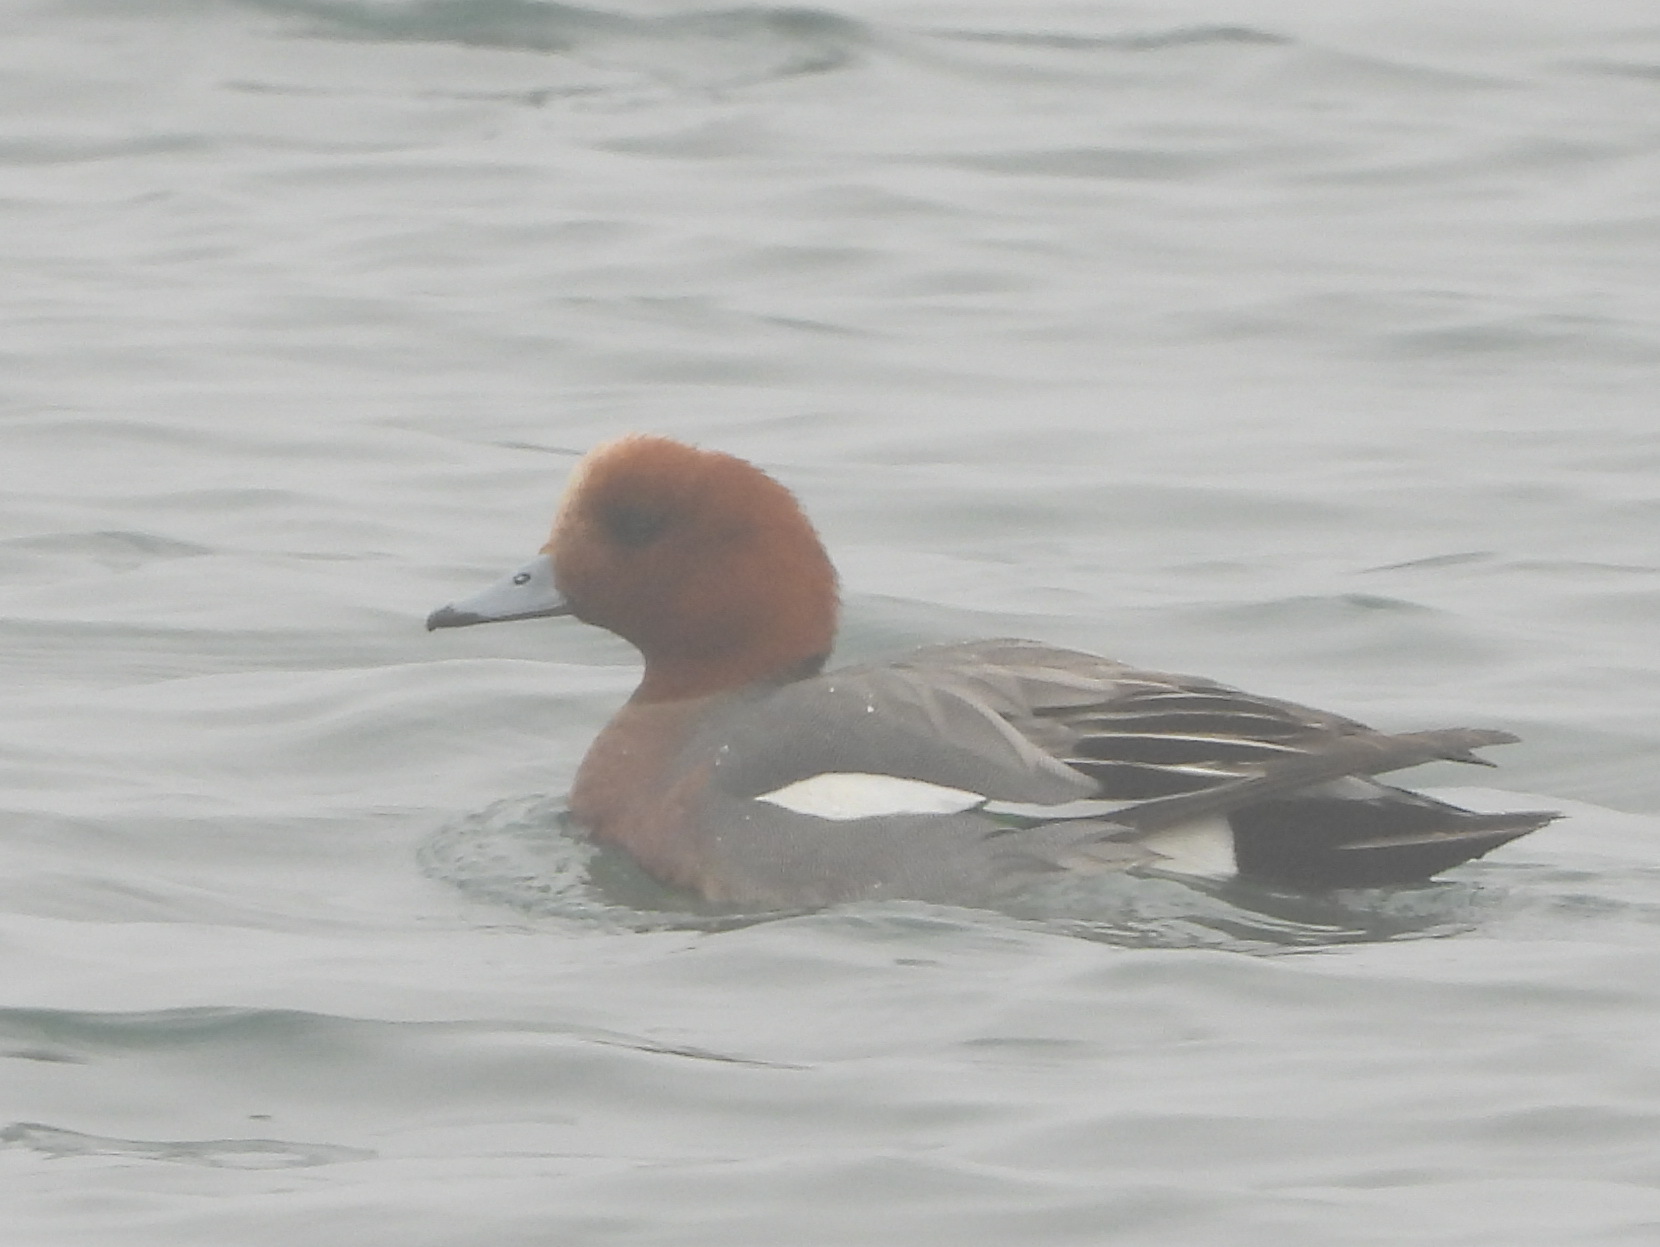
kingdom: Animalia
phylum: Chordata
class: Aves
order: Anseriformes
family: Anatidae
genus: Mareca
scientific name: Mareca penelope
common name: Eurasian wigeon
